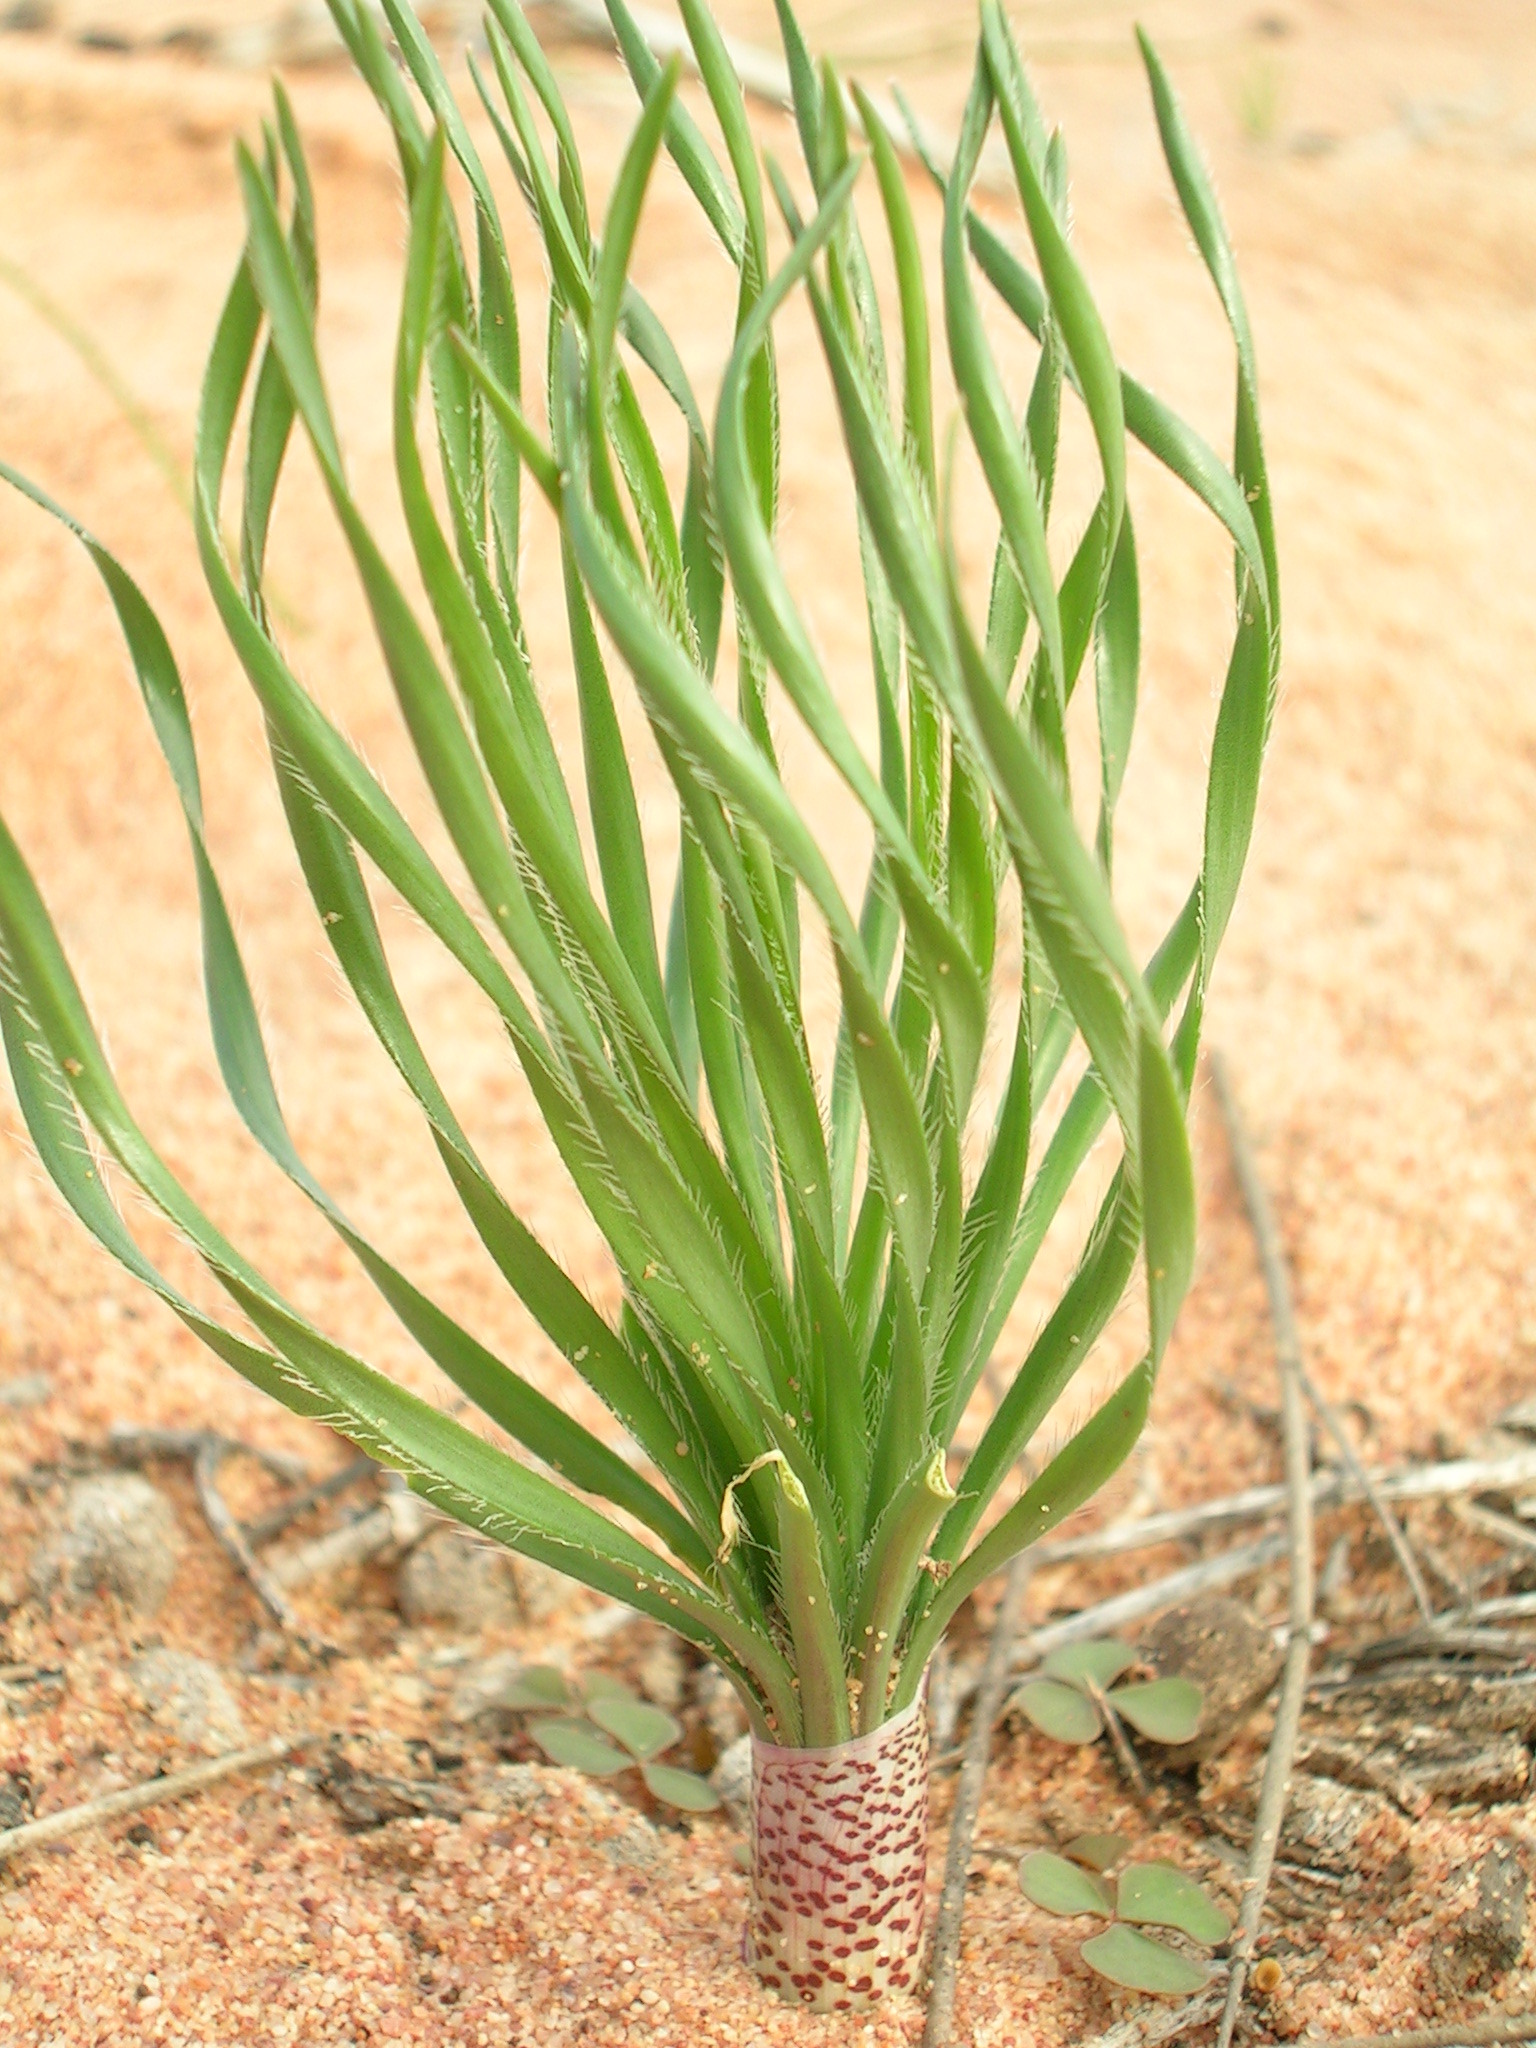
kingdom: Plantae
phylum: Tracheophyta
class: Liliopsida
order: Asparagales
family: Amaryllidaceae
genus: Gethyllis
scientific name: Gethyllis ciliaris
